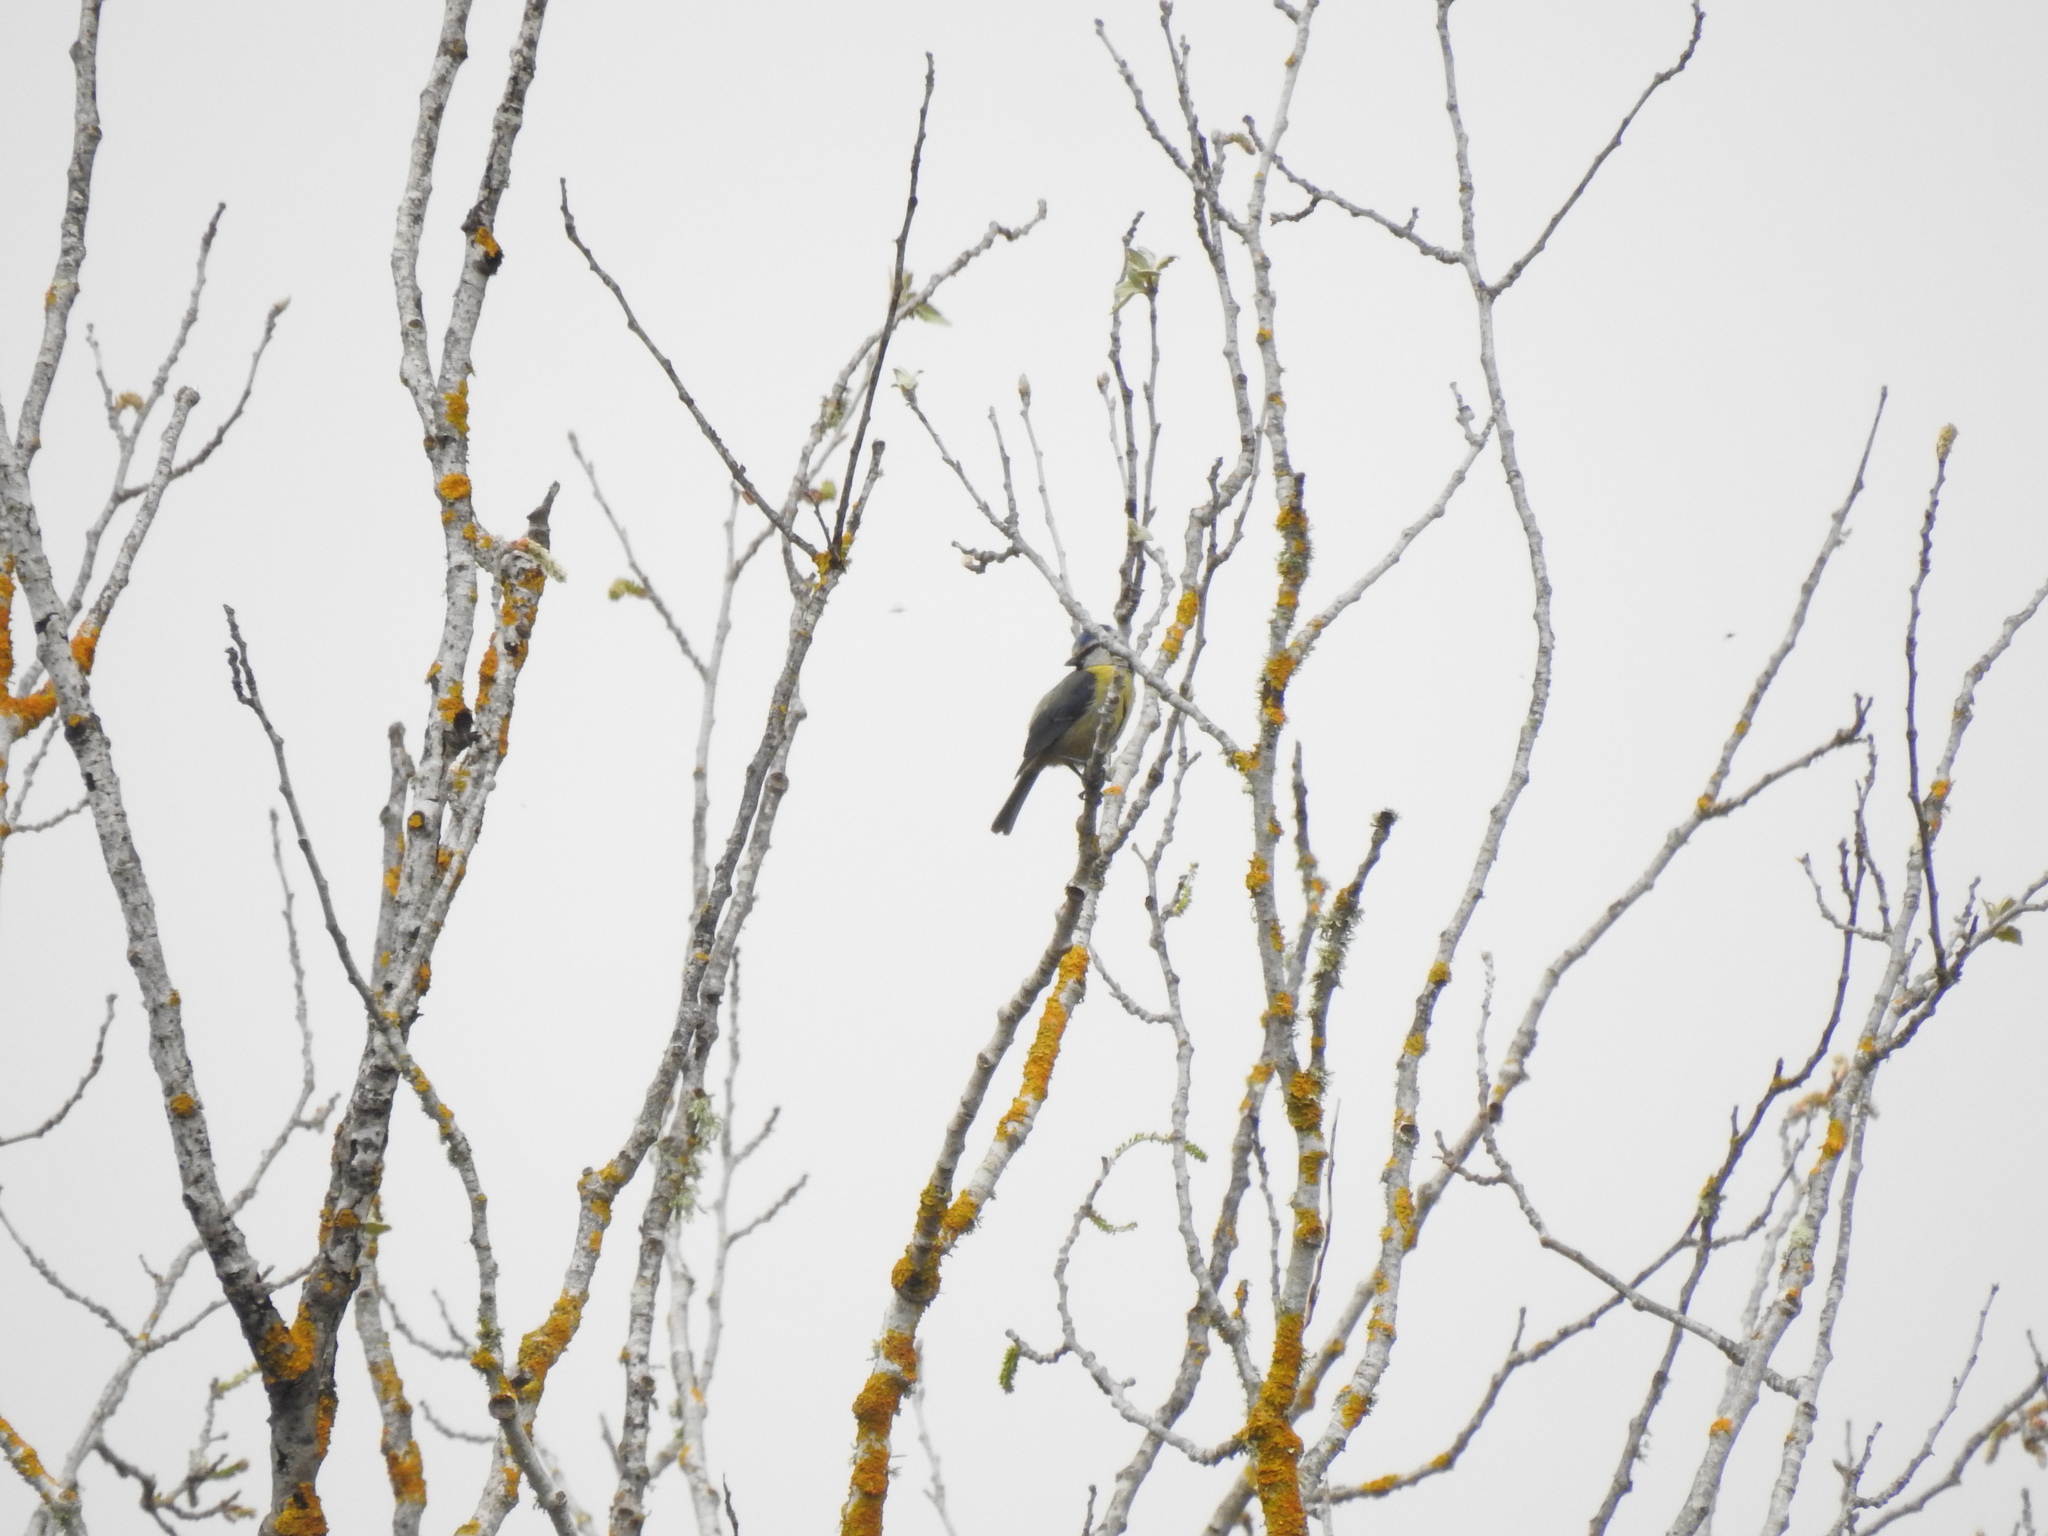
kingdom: Animalia
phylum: Chordata
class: Aves
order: Passeriformes
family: Paridae
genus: Cyanistes
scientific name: Cyanistes caeruleus
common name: Eurasian blue tit
